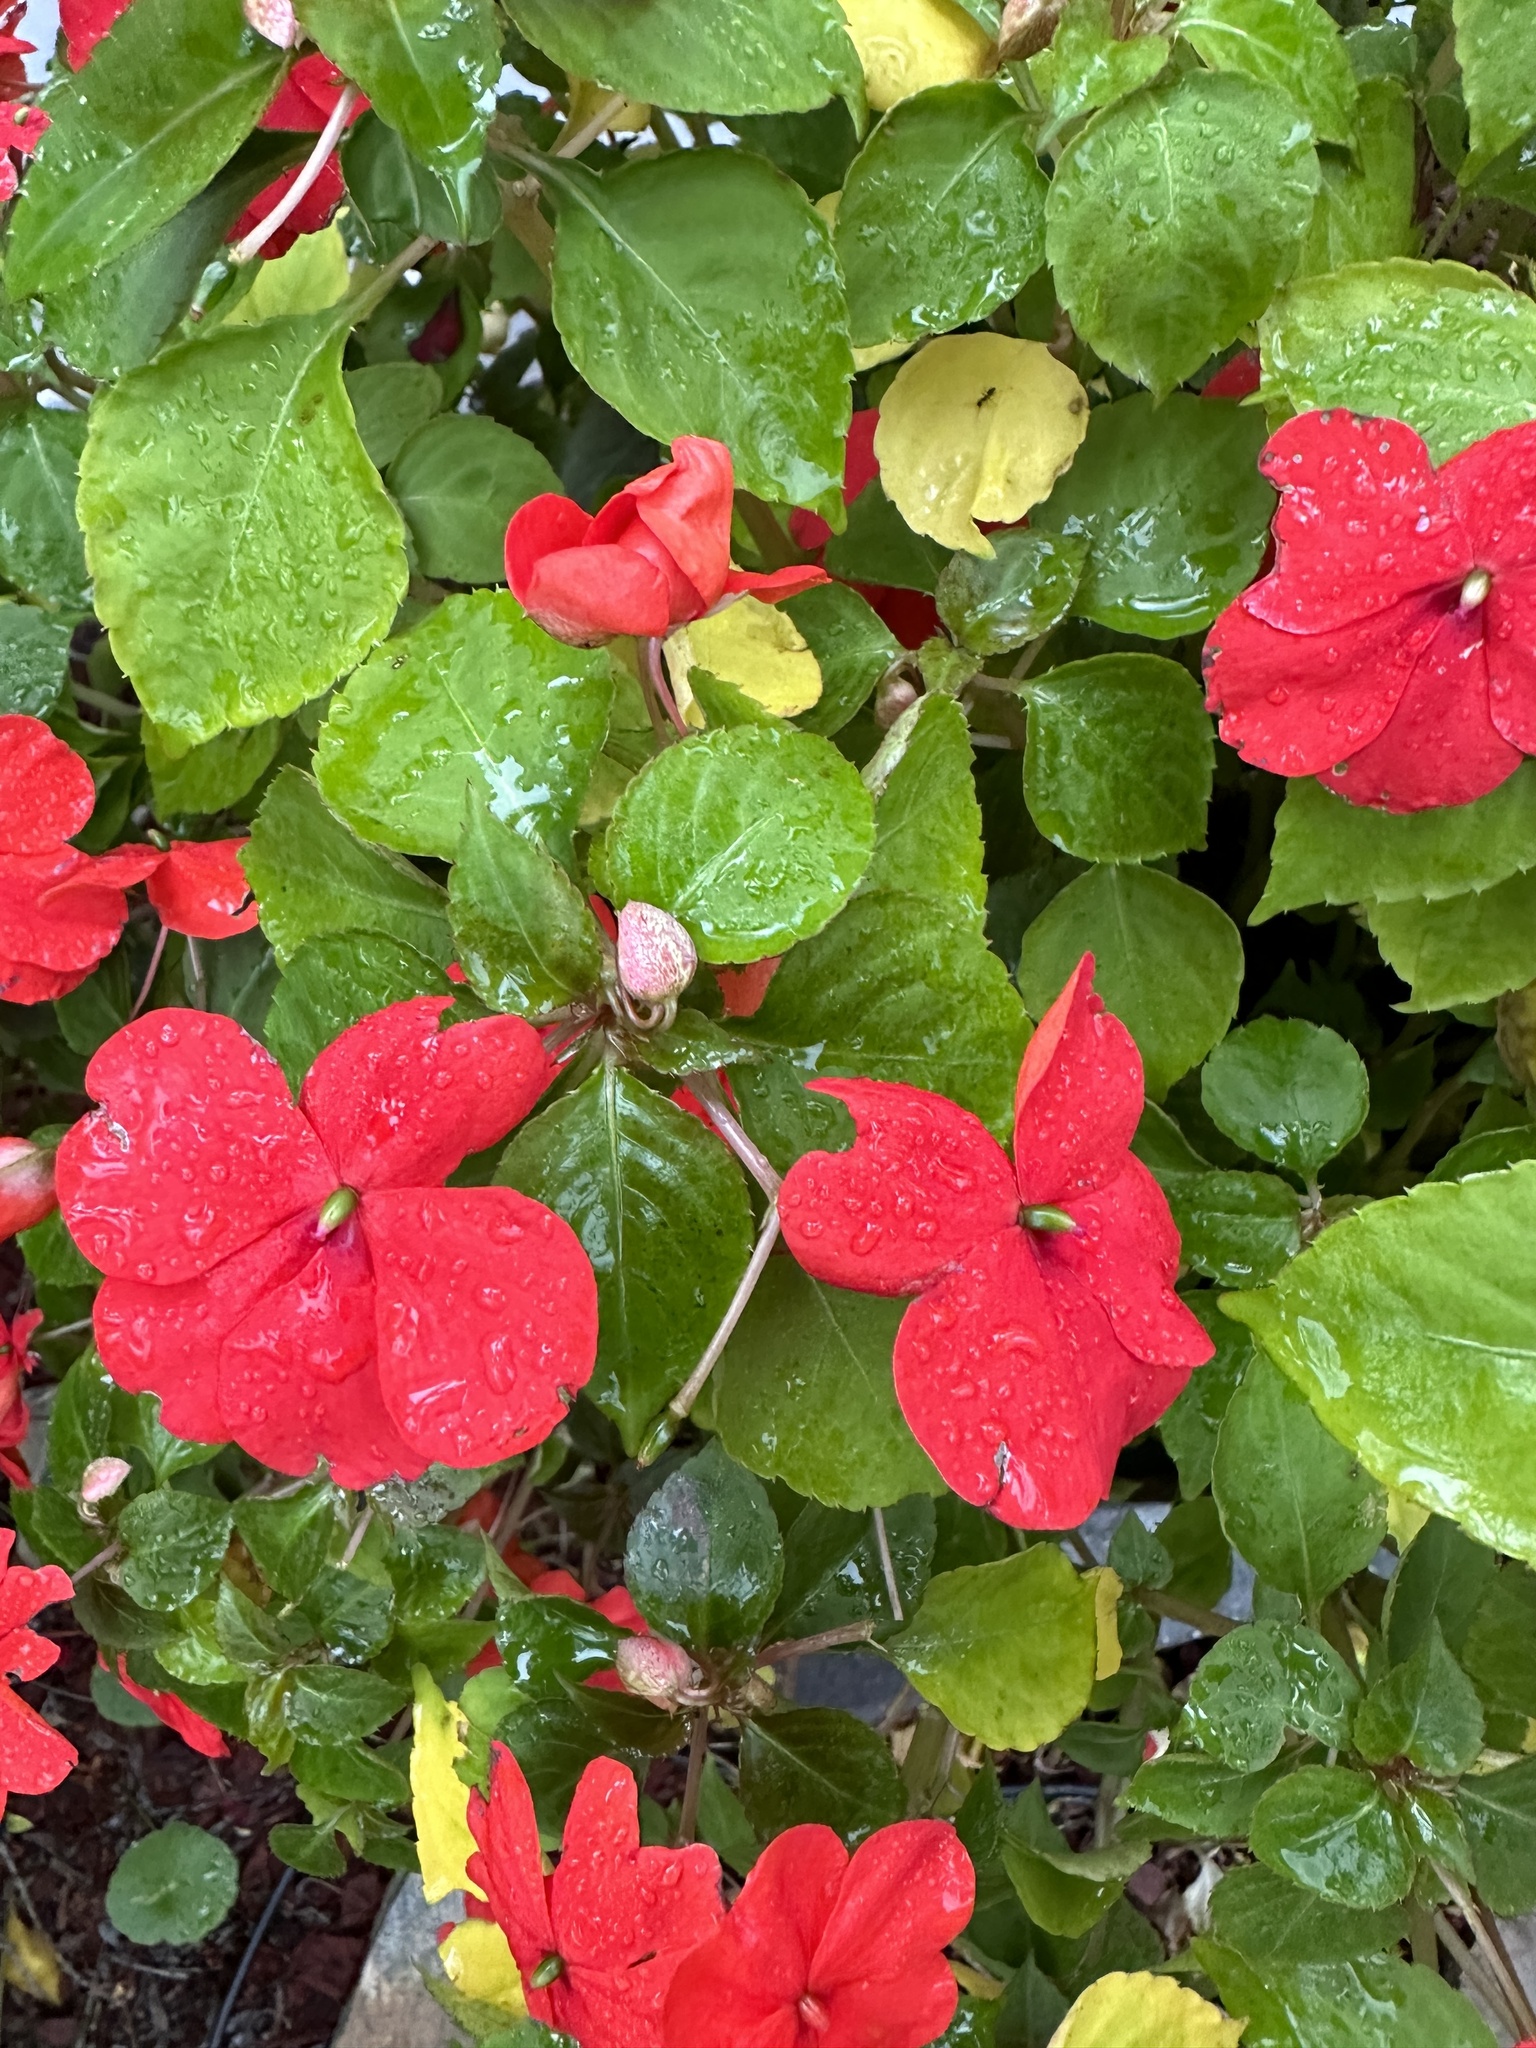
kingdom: Plantae
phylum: Tracheophyta
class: Magnoliopsida
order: Ericales
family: Balsaminaceae
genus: Impatiens
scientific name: Impatiens walleriana
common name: Buzzy lizzy
